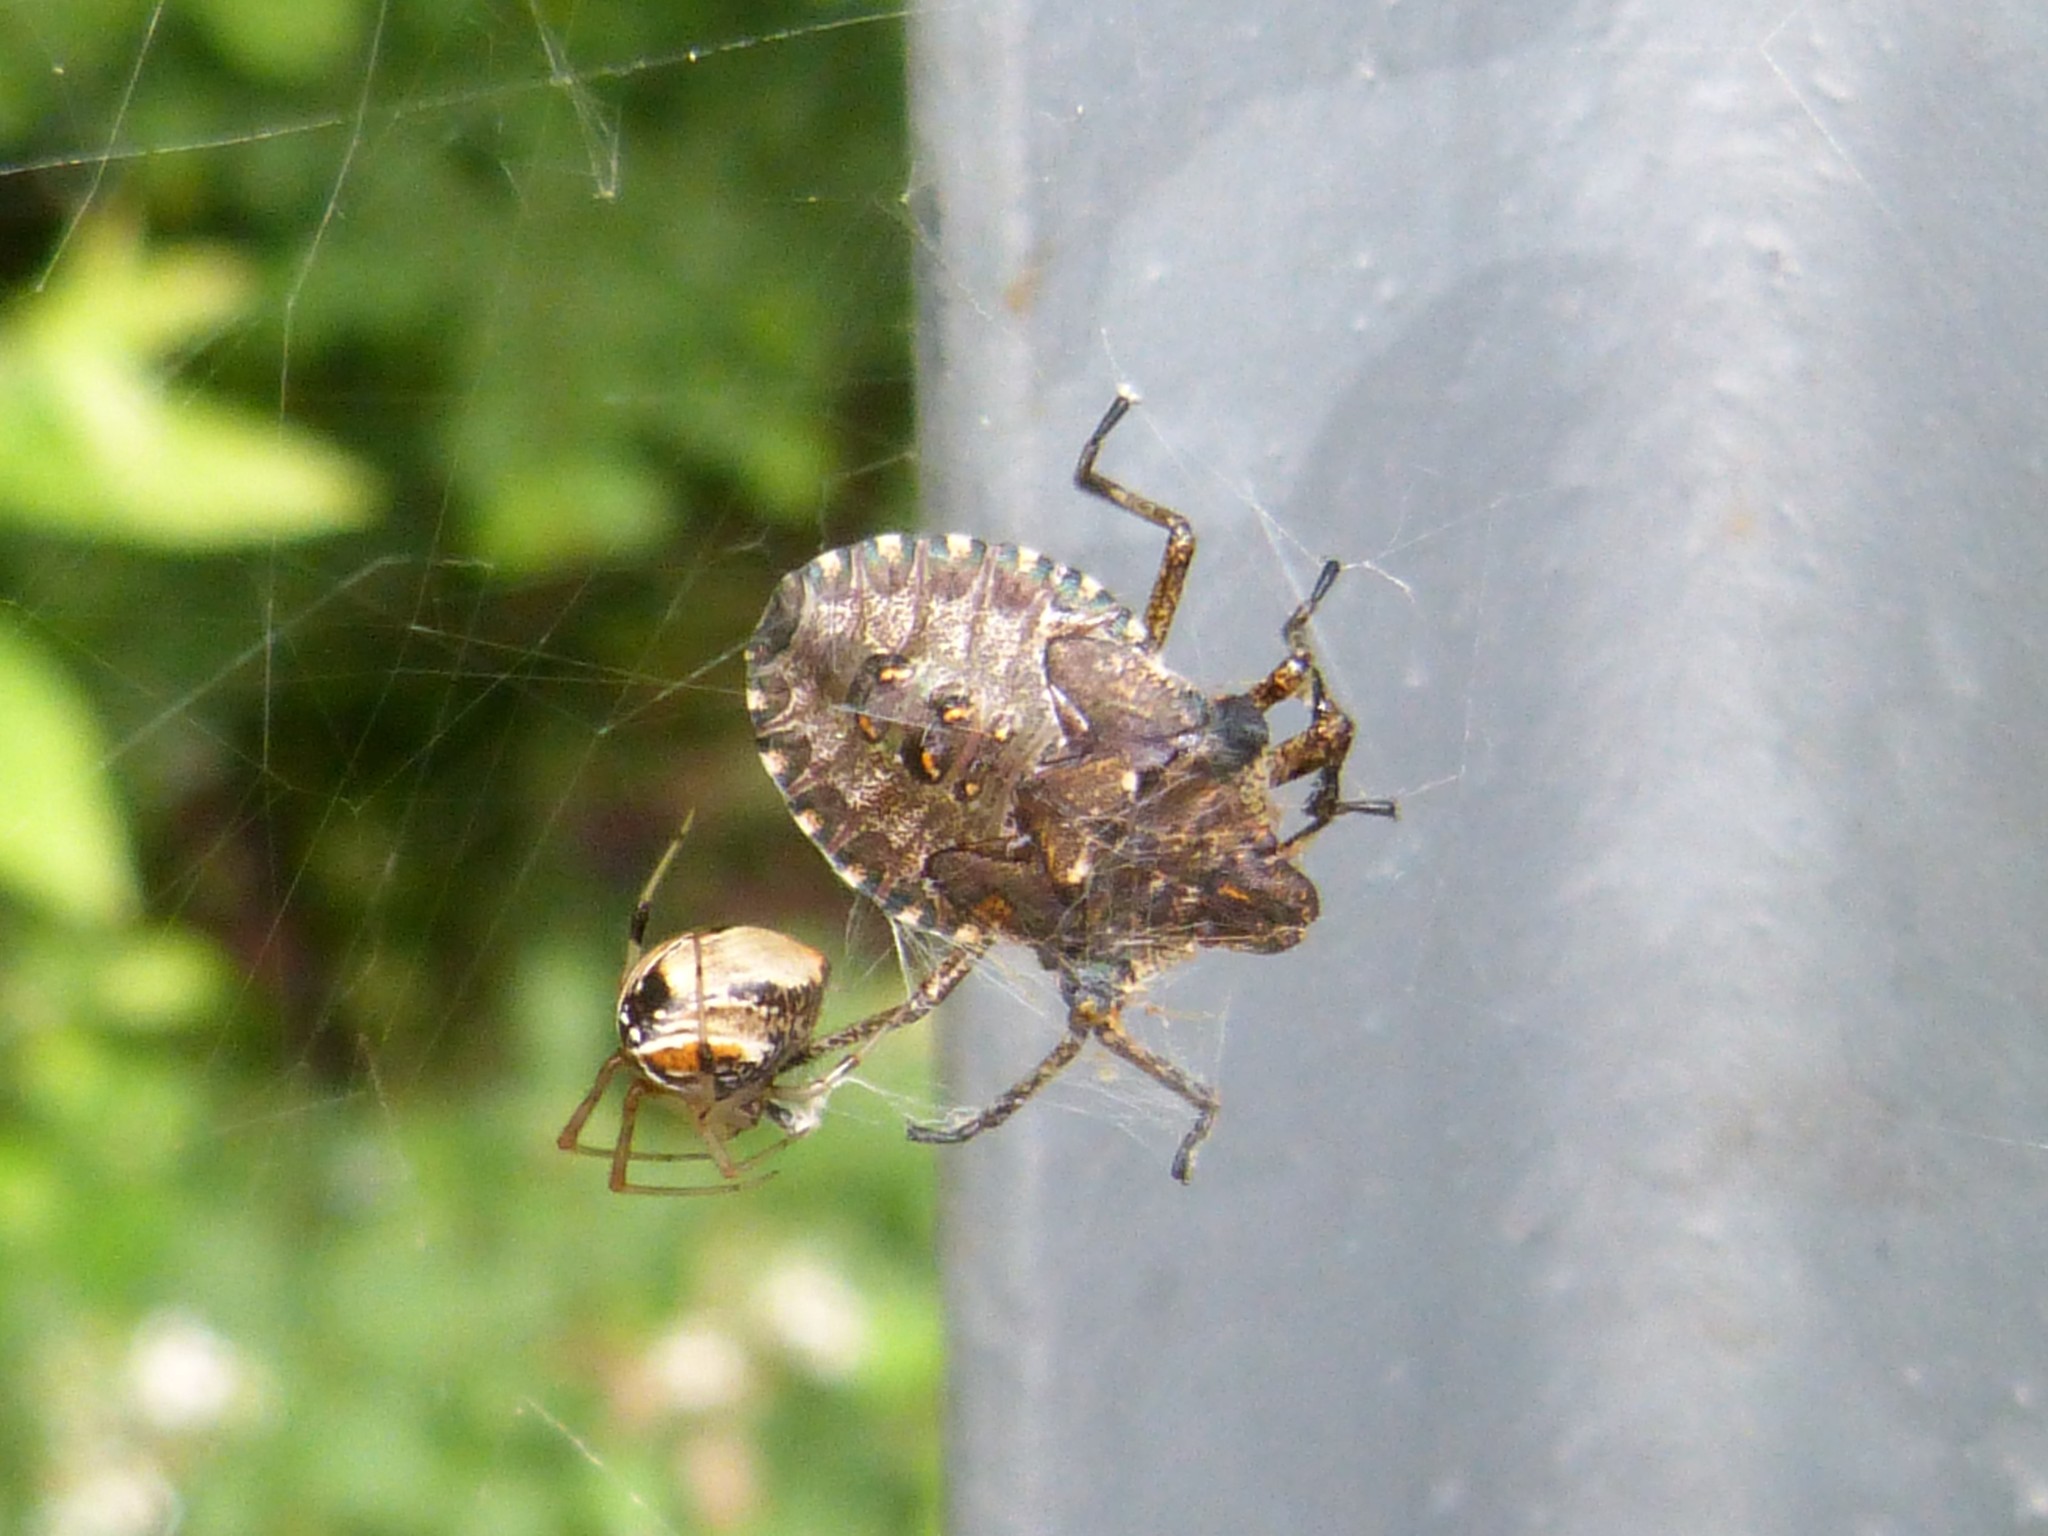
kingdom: Animalia
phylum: Arthropoda
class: Insecta
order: Hemiptera
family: Pentatomidae
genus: Pentatoma
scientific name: Pentatoma rufipes
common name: Forest bug
